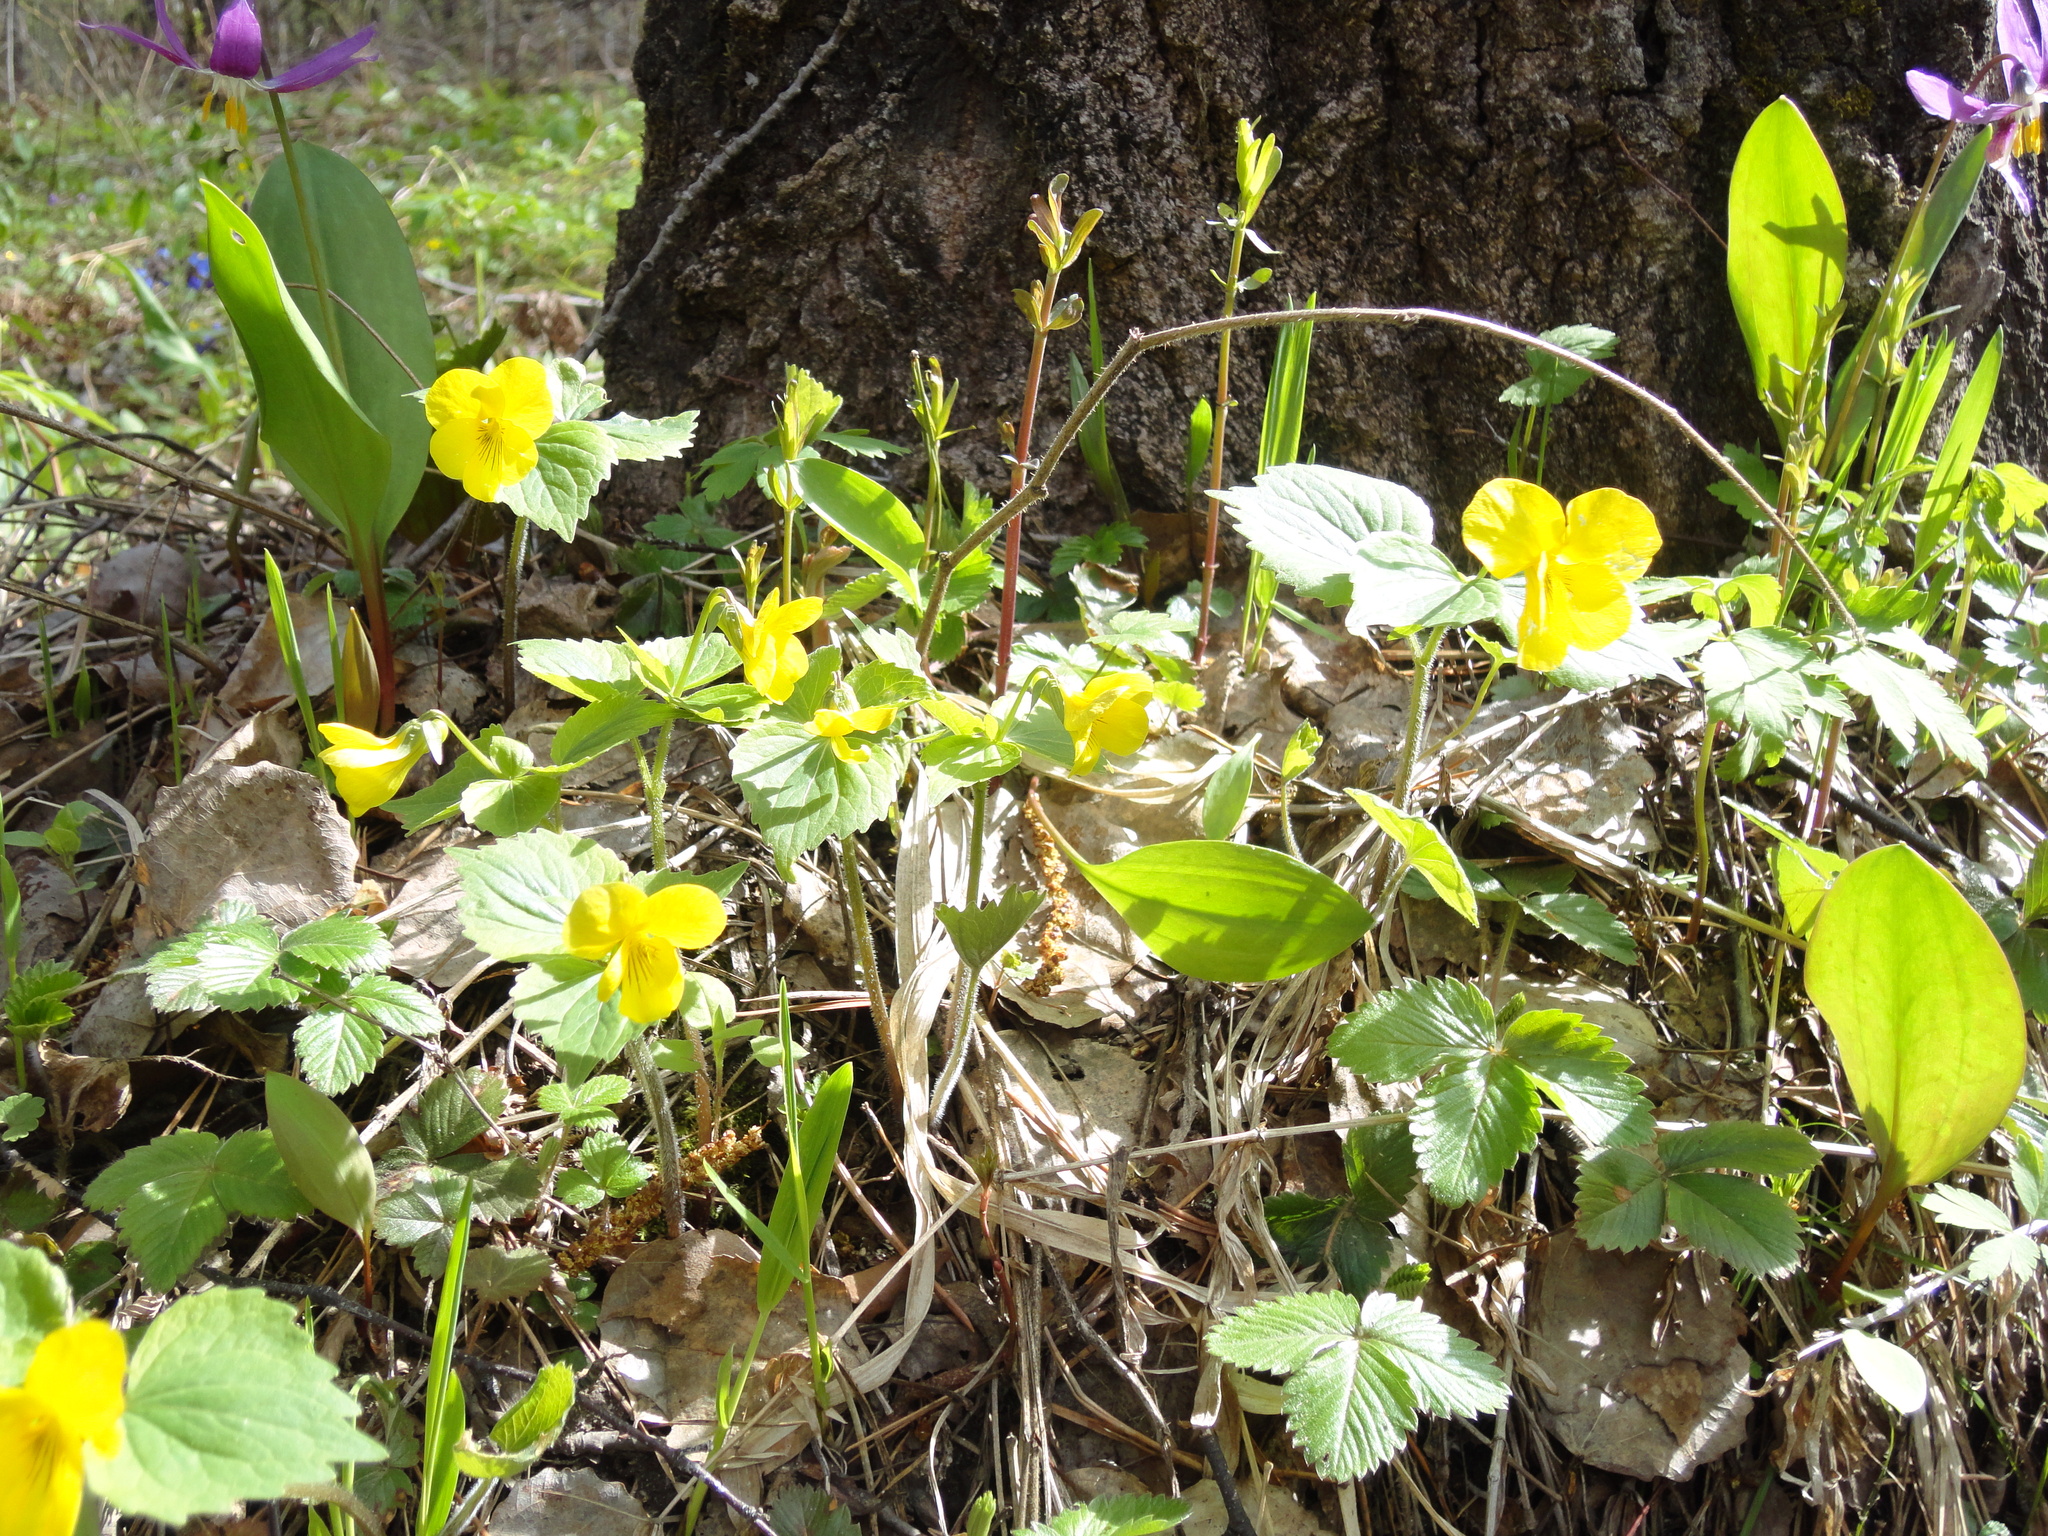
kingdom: Plantae
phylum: Tracheophyta
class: Magnoliopsida
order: Malpighiales
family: Violaceae
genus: Viola
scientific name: Viola uniflora
